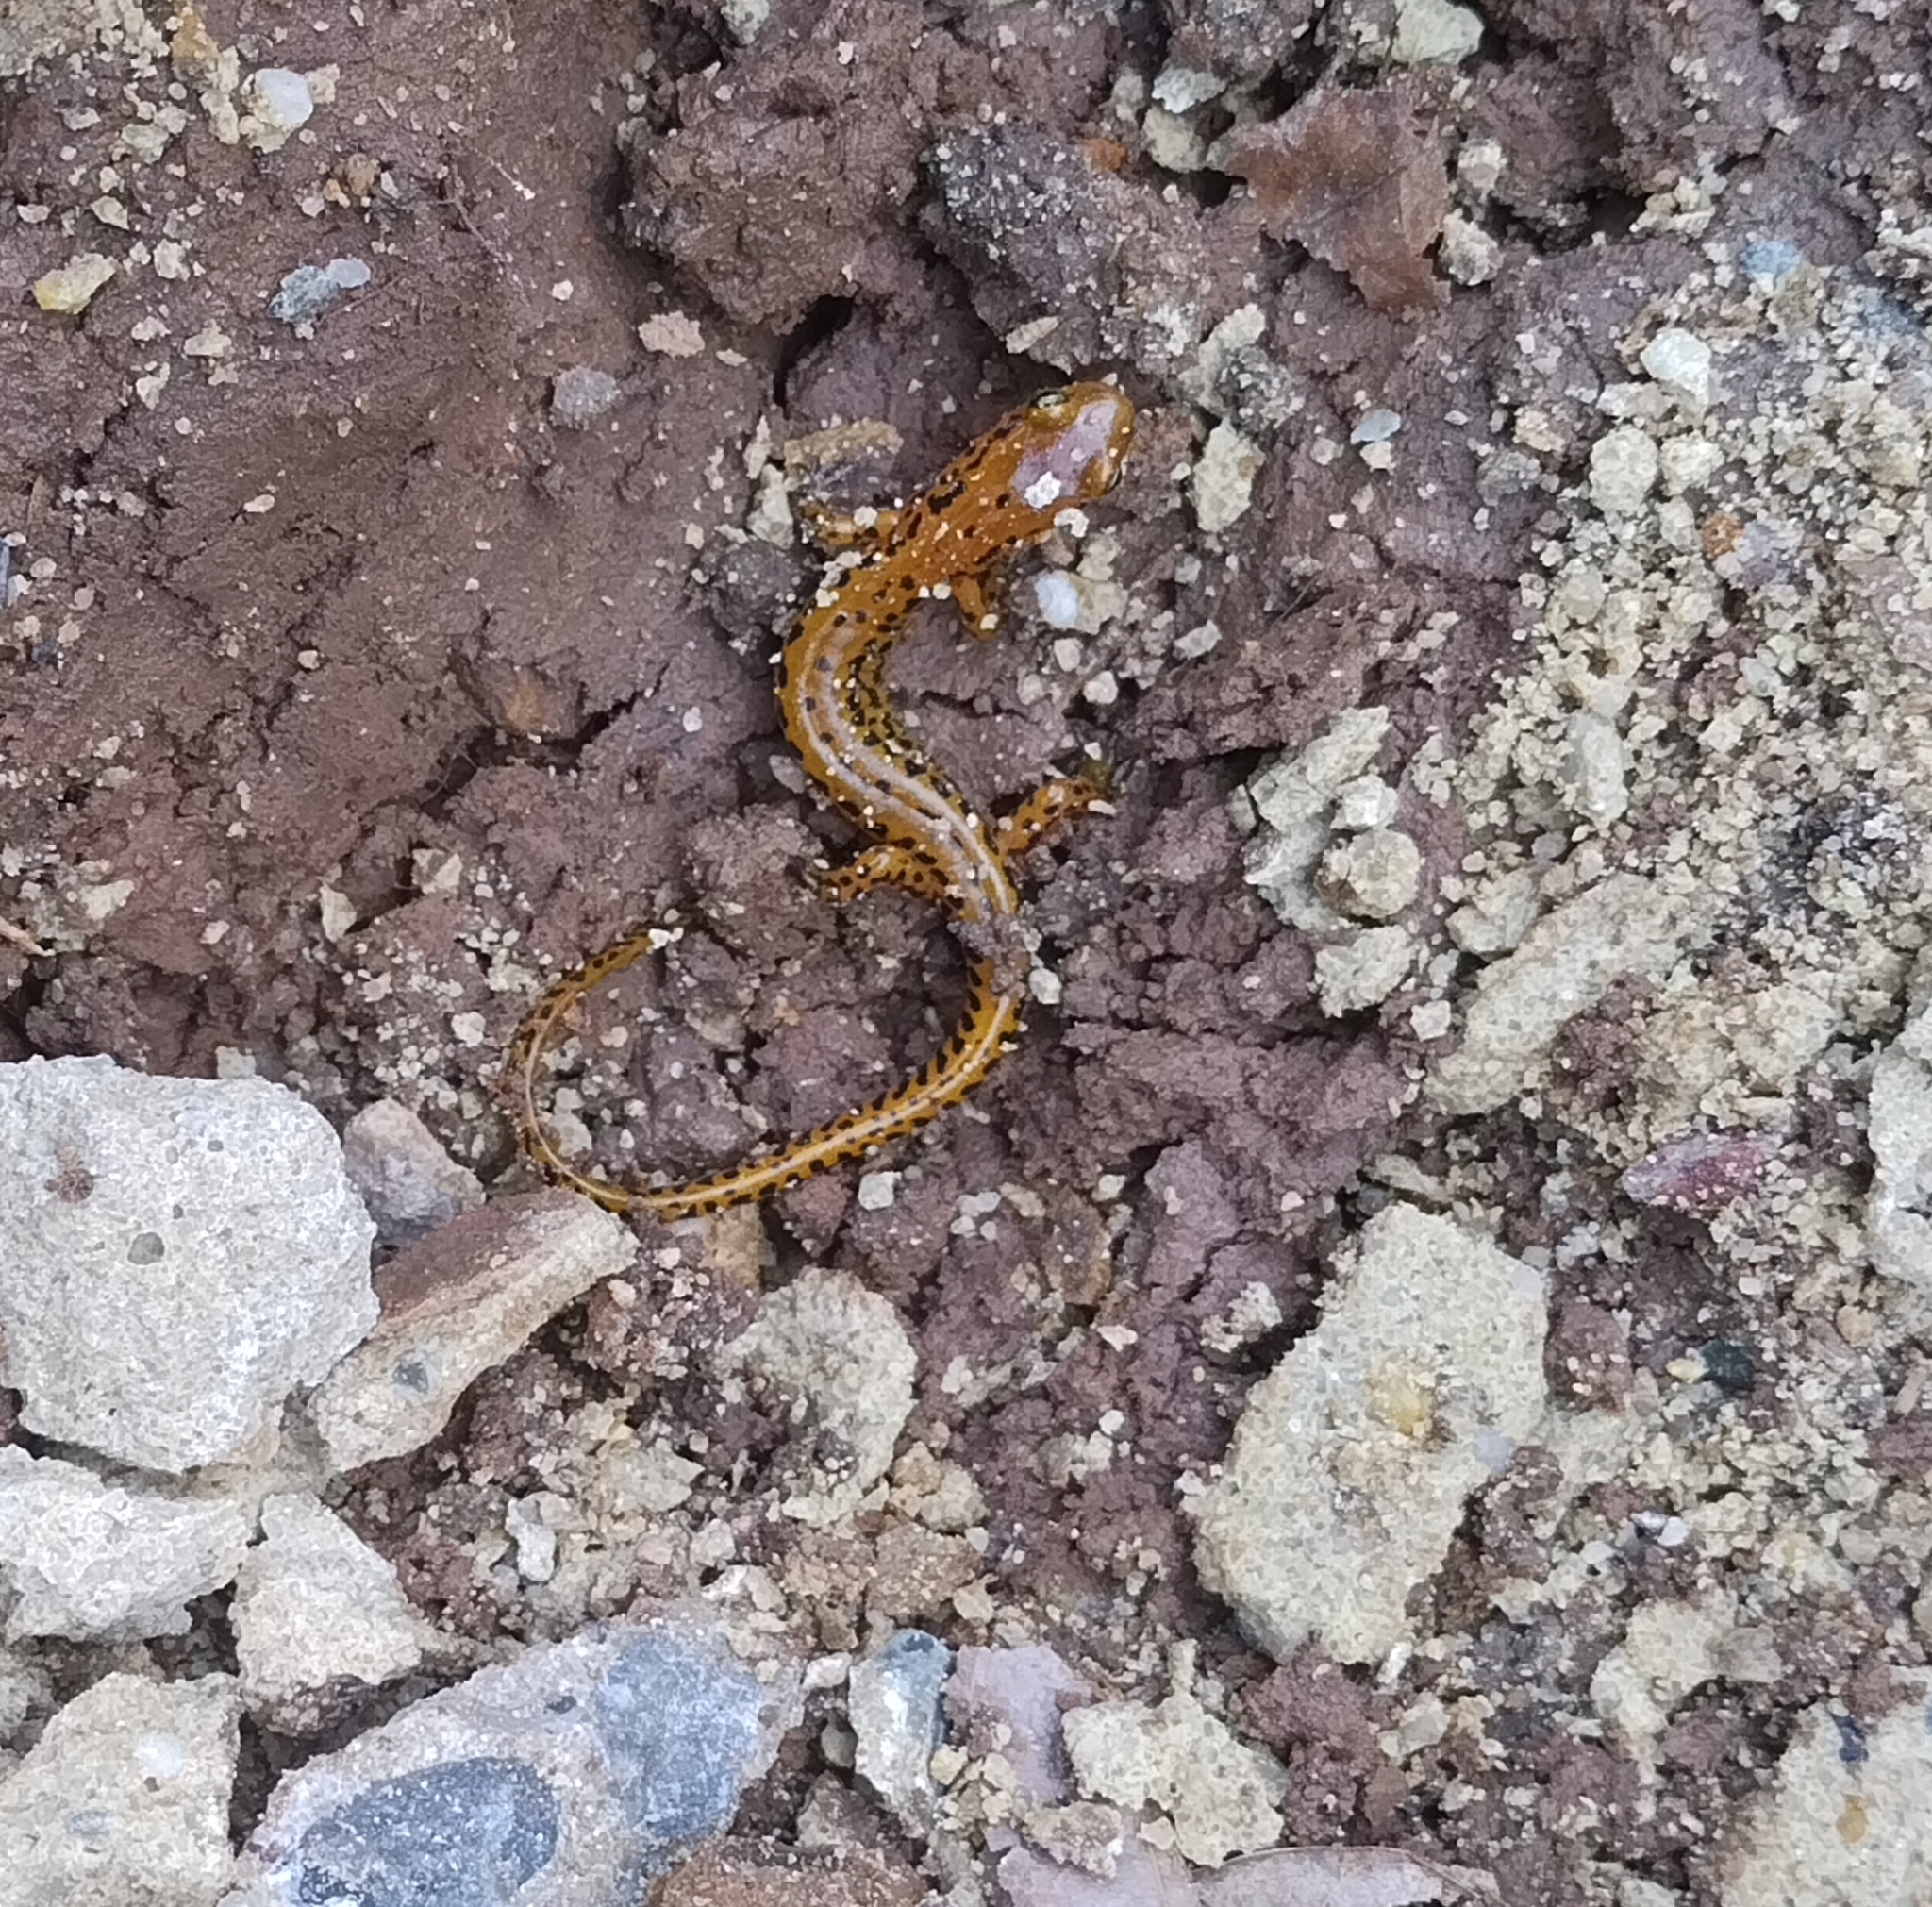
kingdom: Animalia
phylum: Chordata
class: Amphibia
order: Caudata
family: Plethodontidae
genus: Eurycea
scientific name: Eurycea longicauda
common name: Long-tailed salamander
